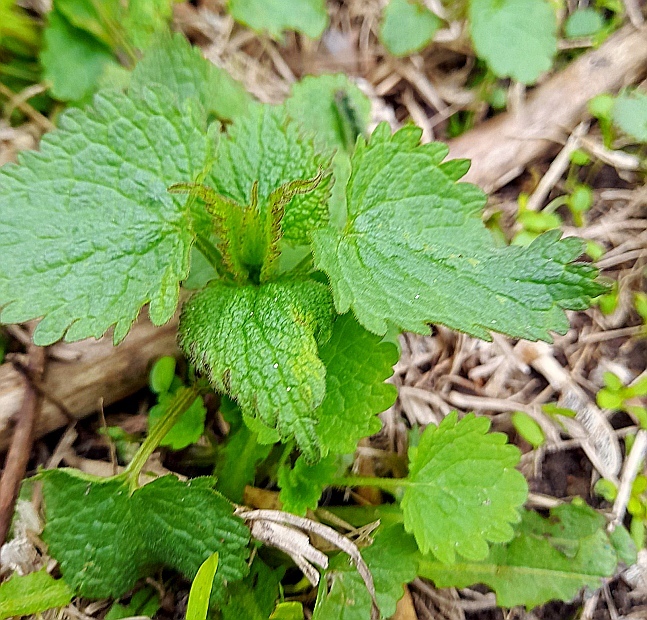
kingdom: Plantae
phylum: Tracheophyta
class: Magnoliopsida
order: Lamiales
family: Lamiaceae
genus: Lamium
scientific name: Lamium album
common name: White dead-nettle
